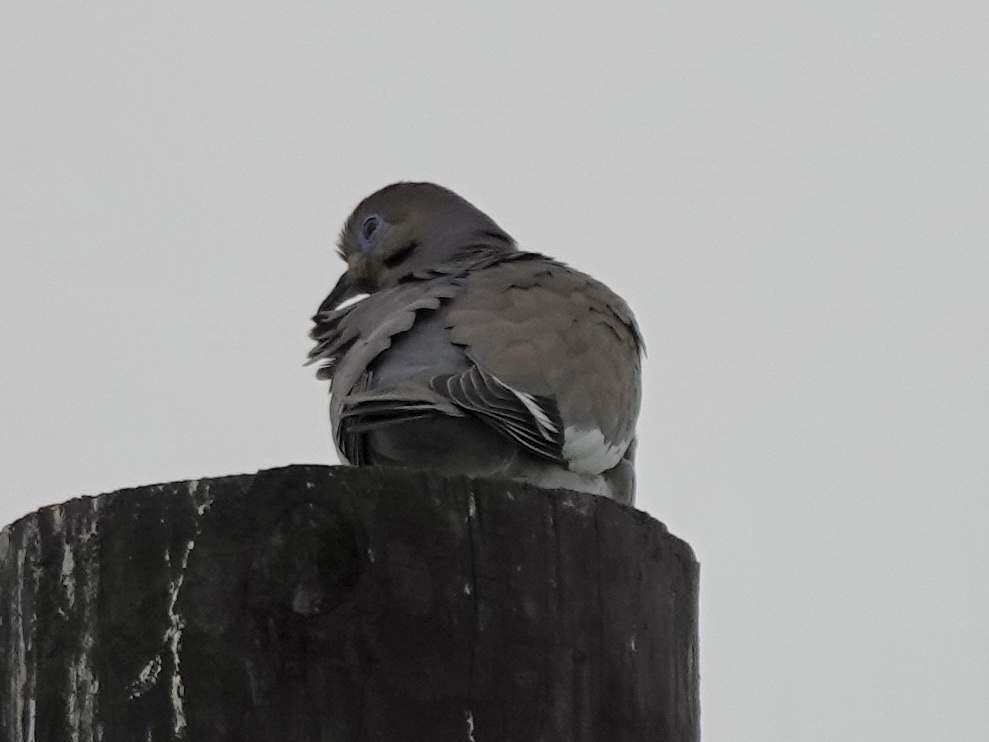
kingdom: Animalia
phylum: Chordata
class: Aves
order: Columbiformes
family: Columbidae
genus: Zenaida
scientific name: Zenaida asiatica
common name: White-winged dove
